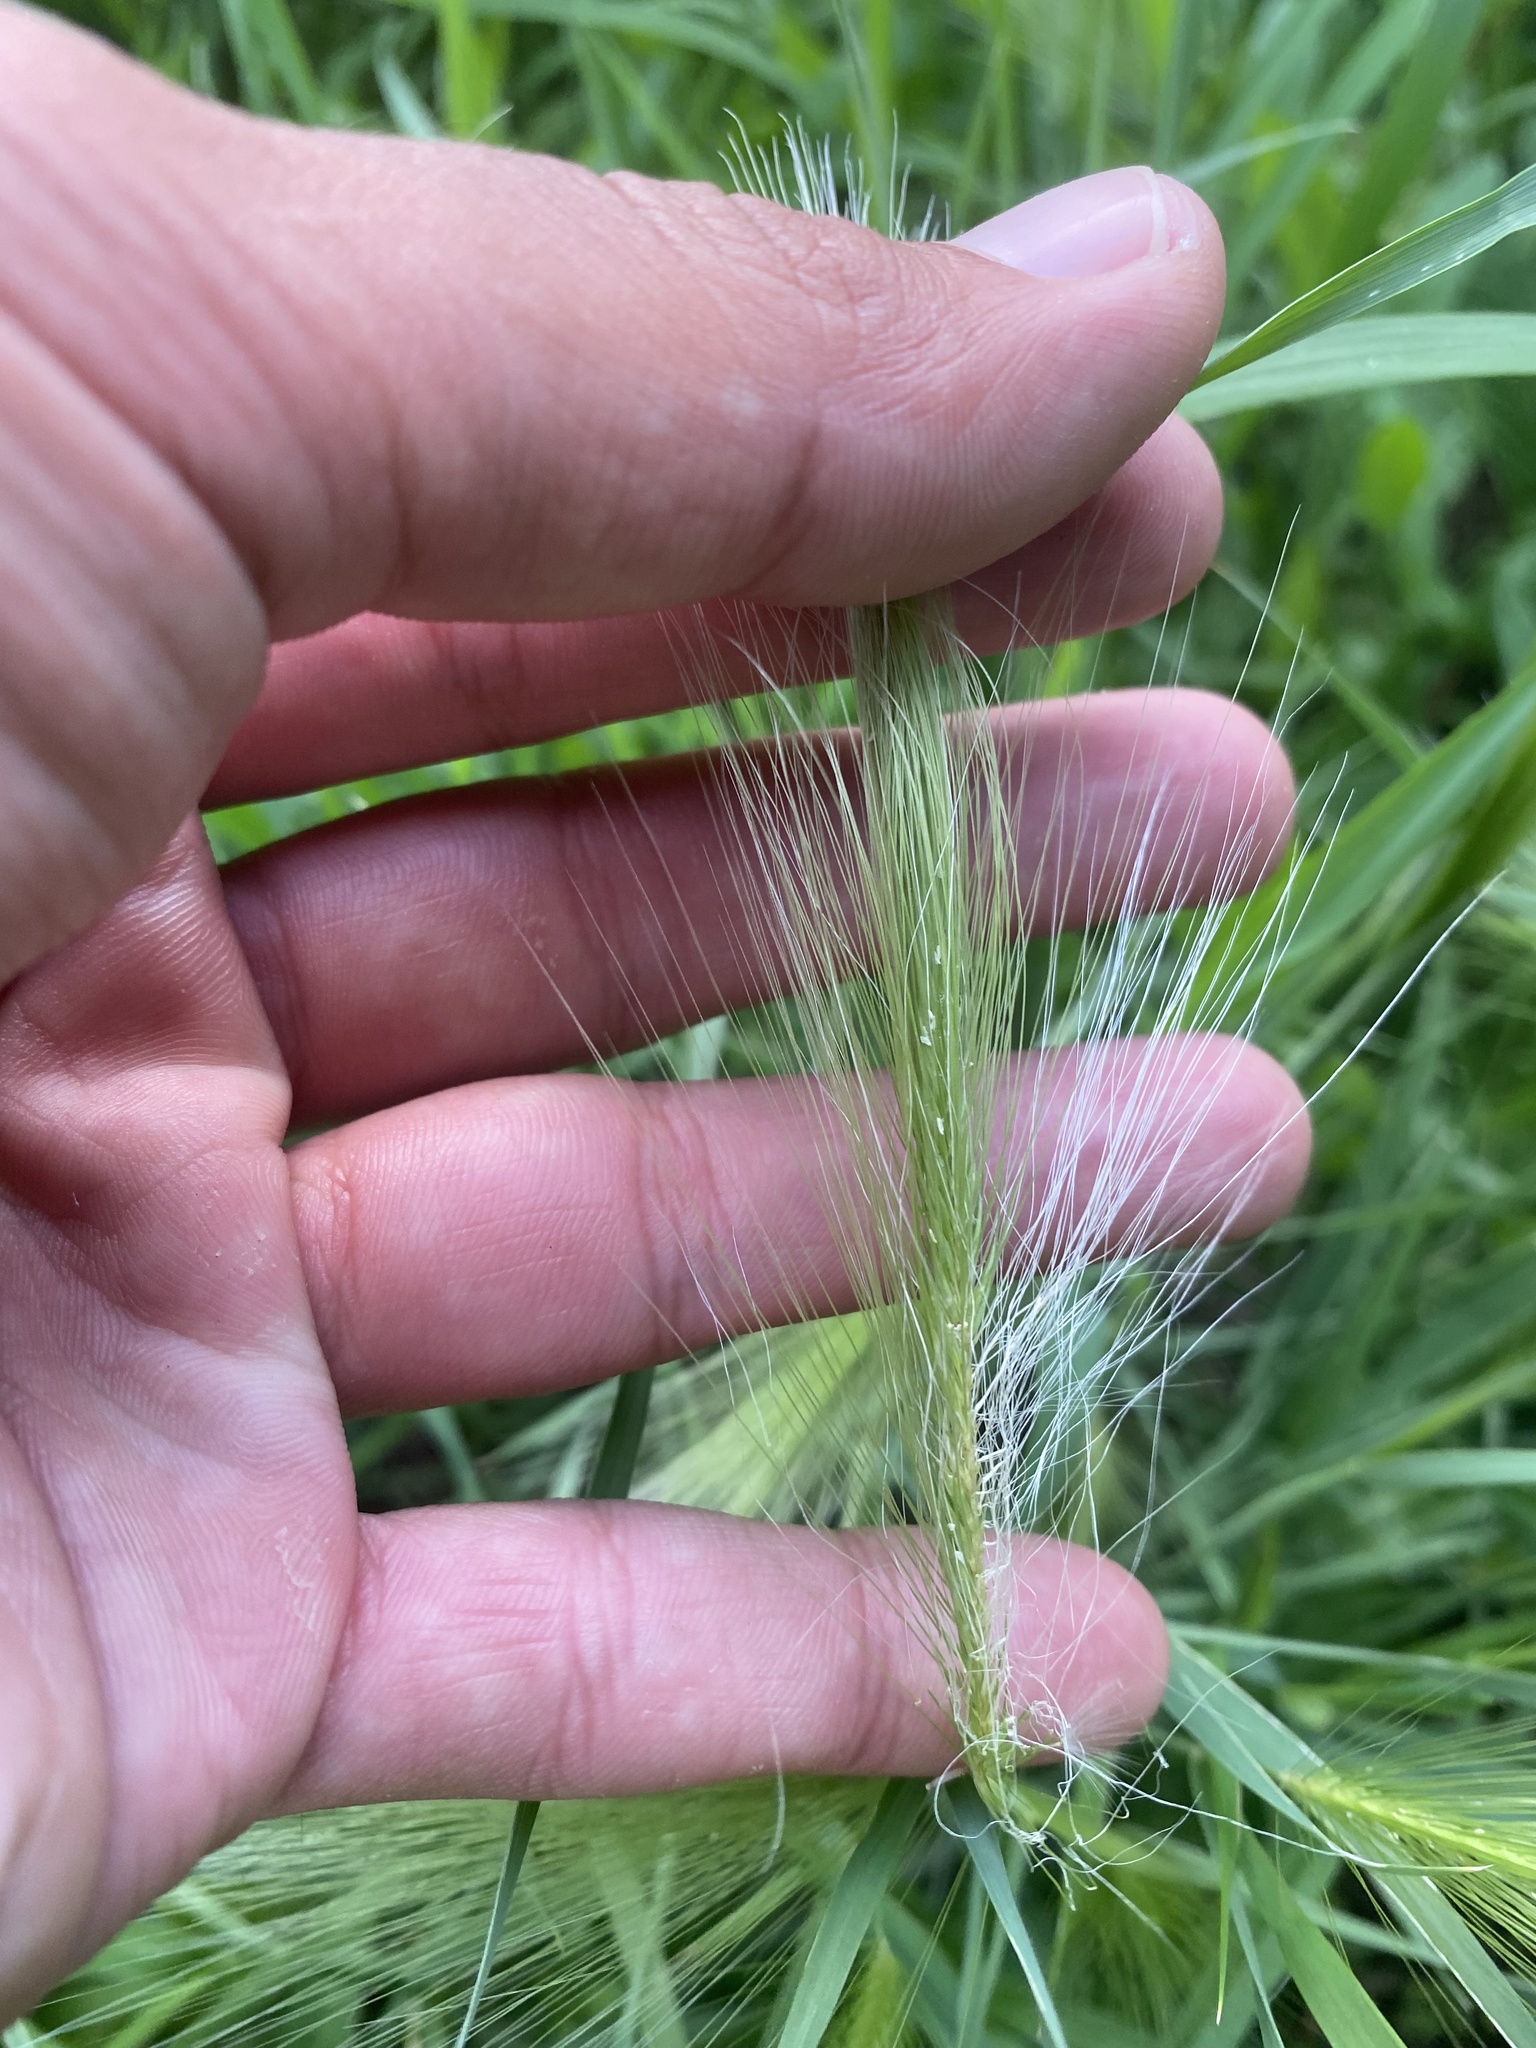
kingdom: Plantae
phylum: Tracheophyta
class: Liliopsida
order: Poales
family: Poaceae
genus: Hordeum
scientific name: Hordeum jubatum
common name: Foxtail barley
